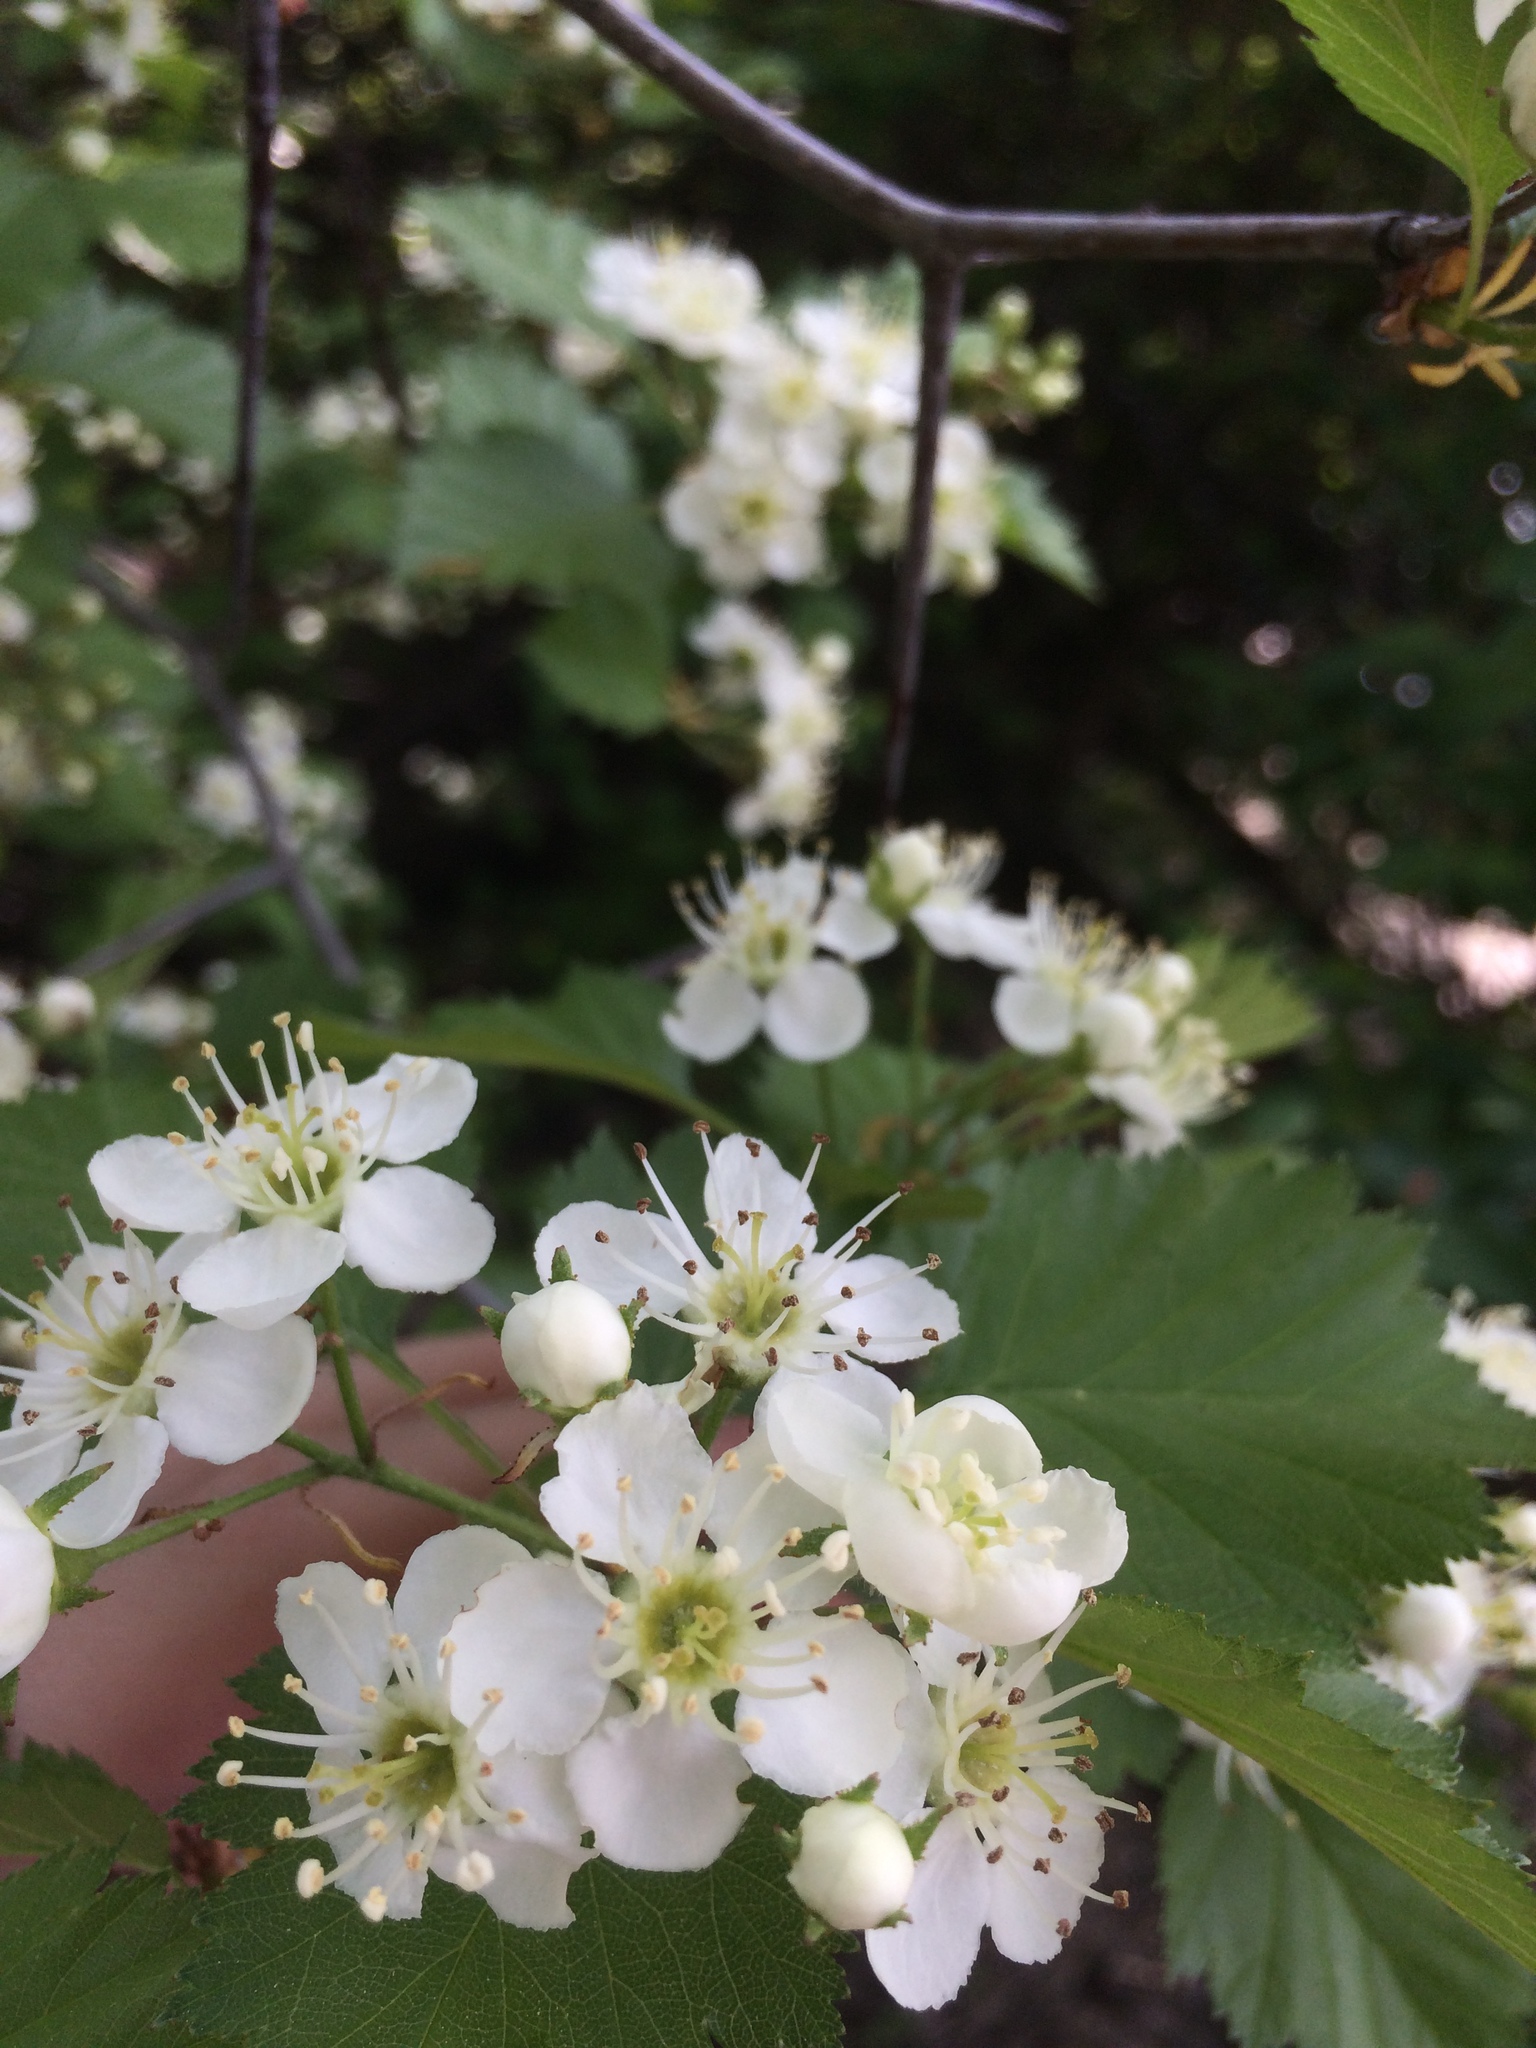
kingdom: Plantae
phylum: Tracheophyta
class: Magnoliopsida
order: Rosales
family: Rosaceae
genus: Crataegus
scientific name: Crataegus irrasa
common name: Unshorn hawthorn
